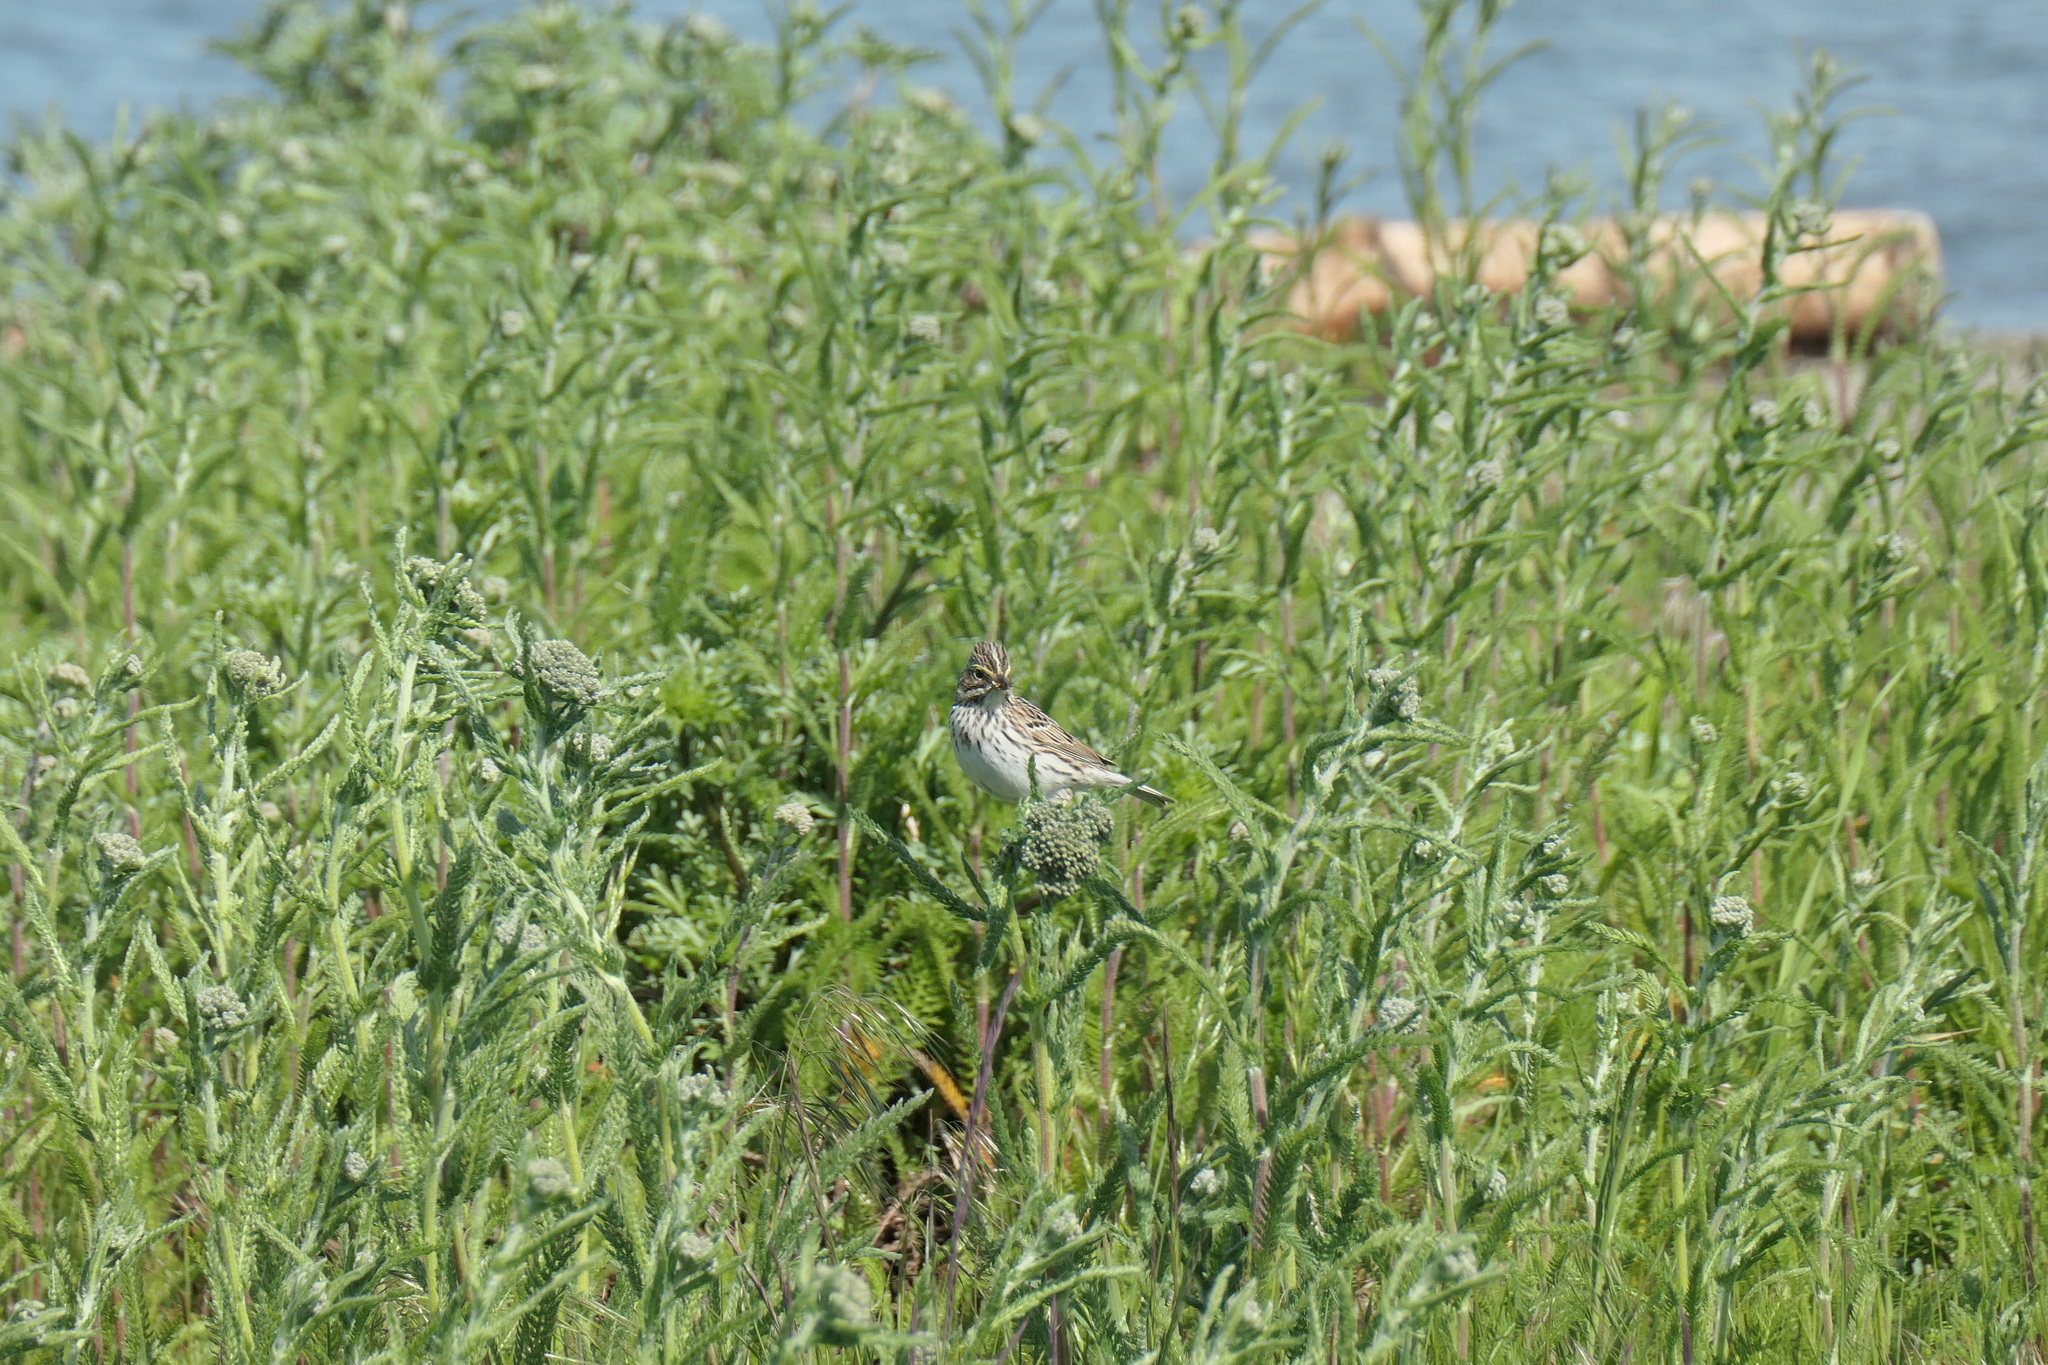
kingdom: Animalia
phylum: Chordata
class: Aves
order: Passeriformes
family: Passerellidae
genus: Passerculus
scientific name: Passerculus sandwichensis
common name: Savannah sparrow
